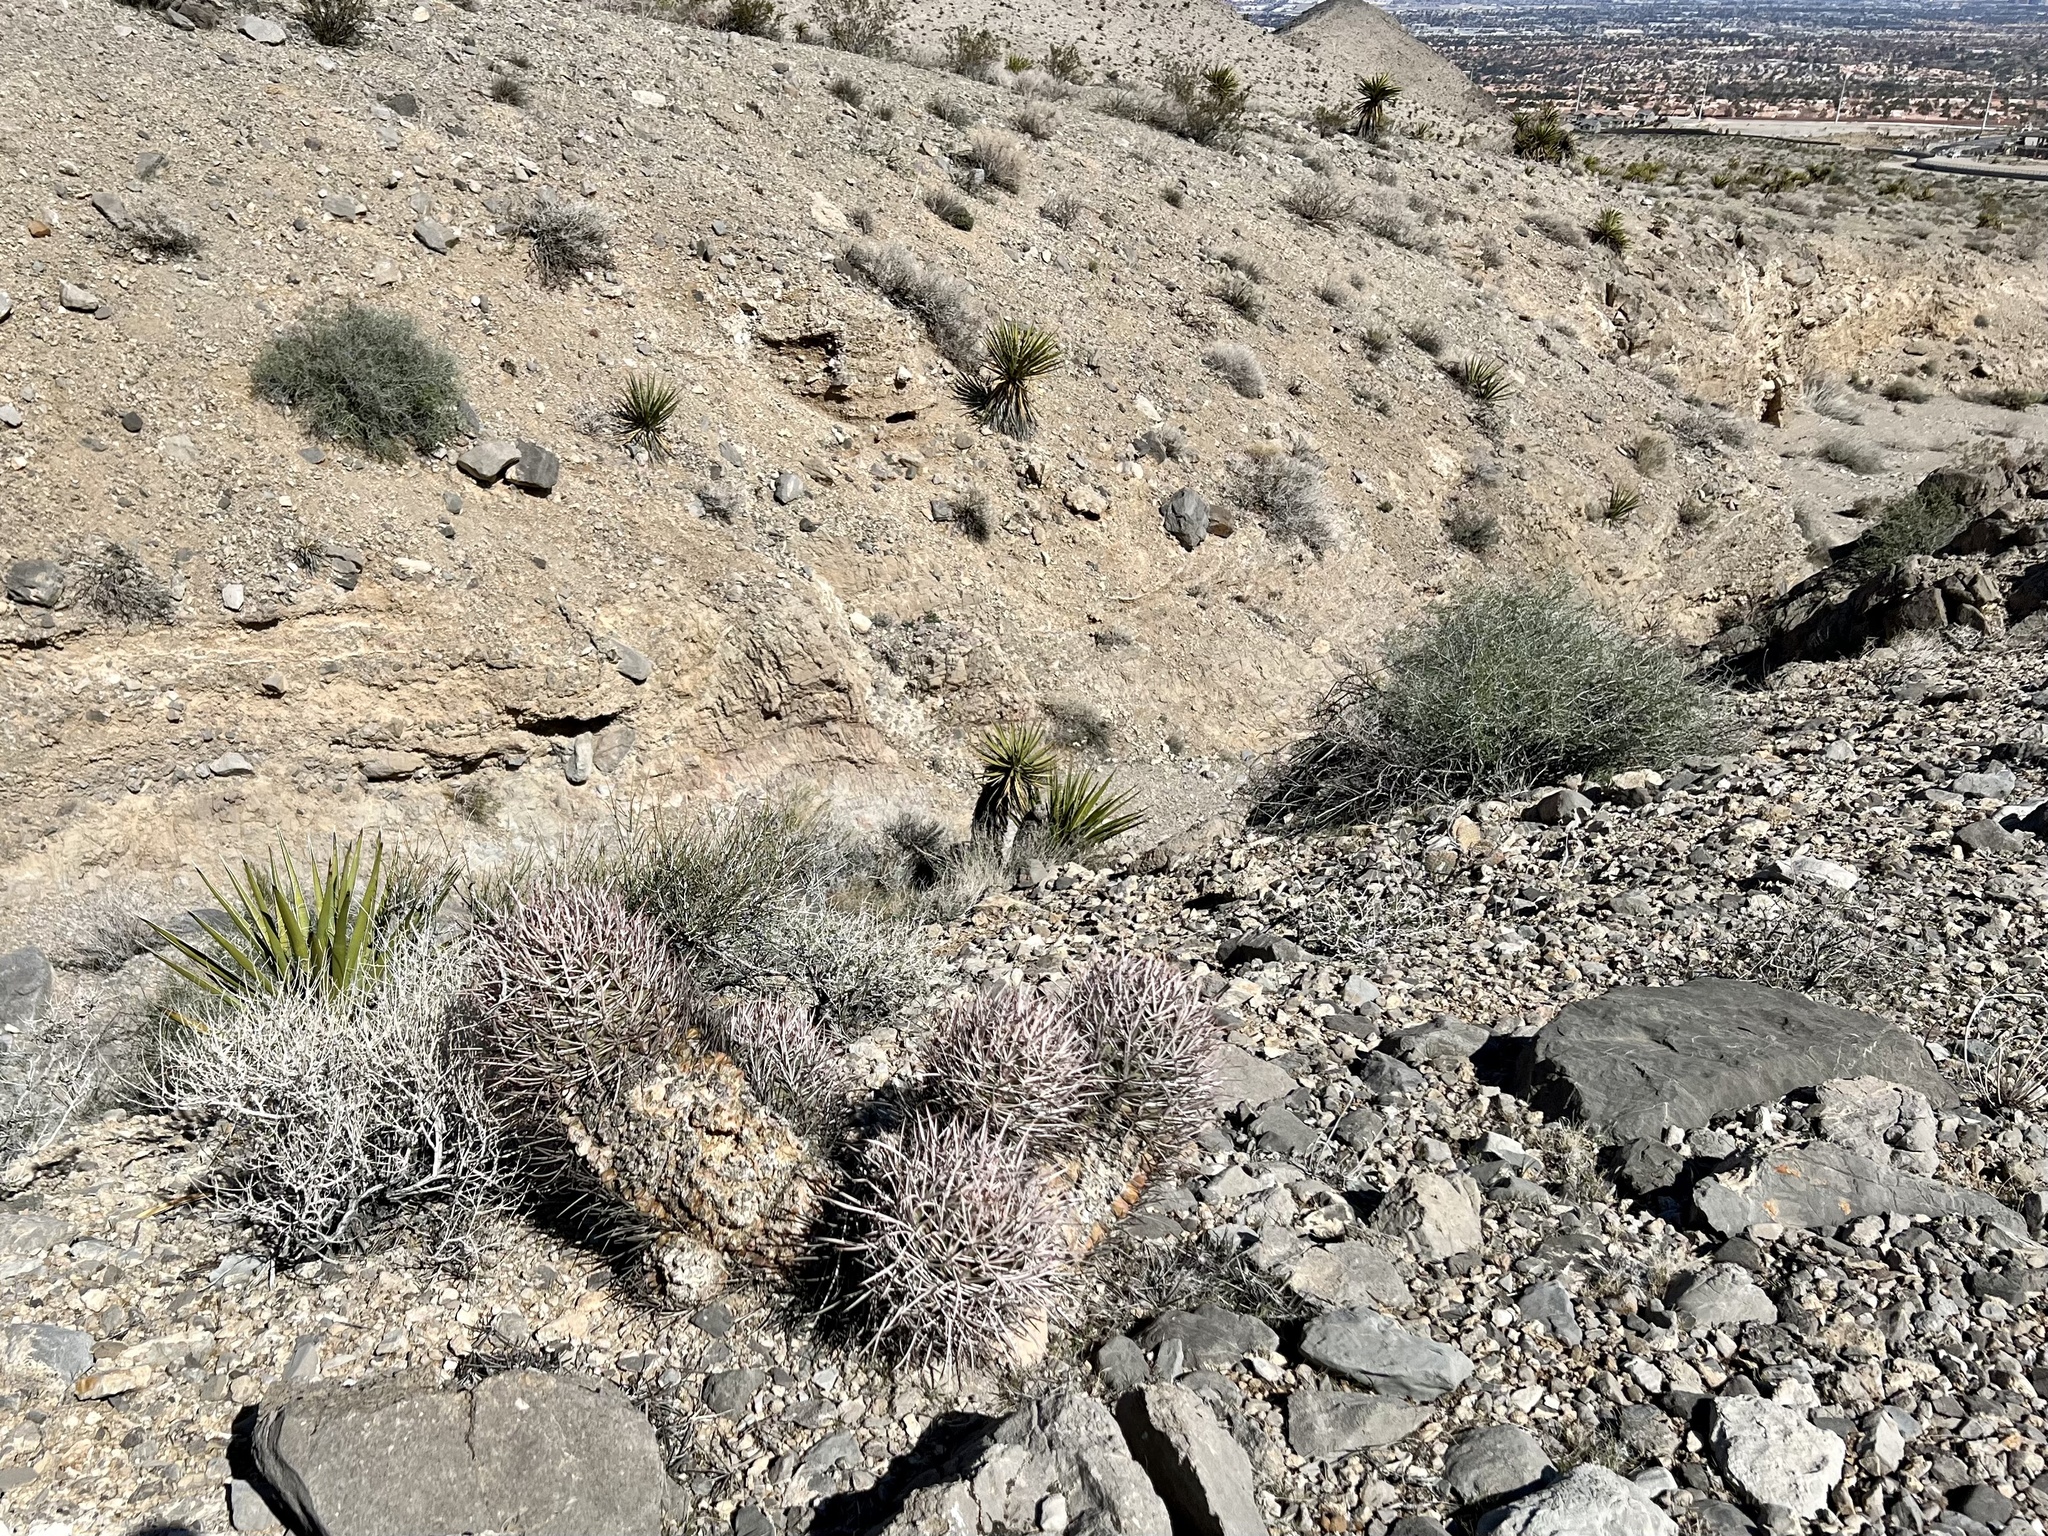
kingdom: Plantae
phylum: Tracheophyta
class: Magnoliopsida
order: Caryophyllales
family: Cactaceae
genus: Echinocactus
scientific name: Echinocactus polycephalus
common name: Cottontop cactus
